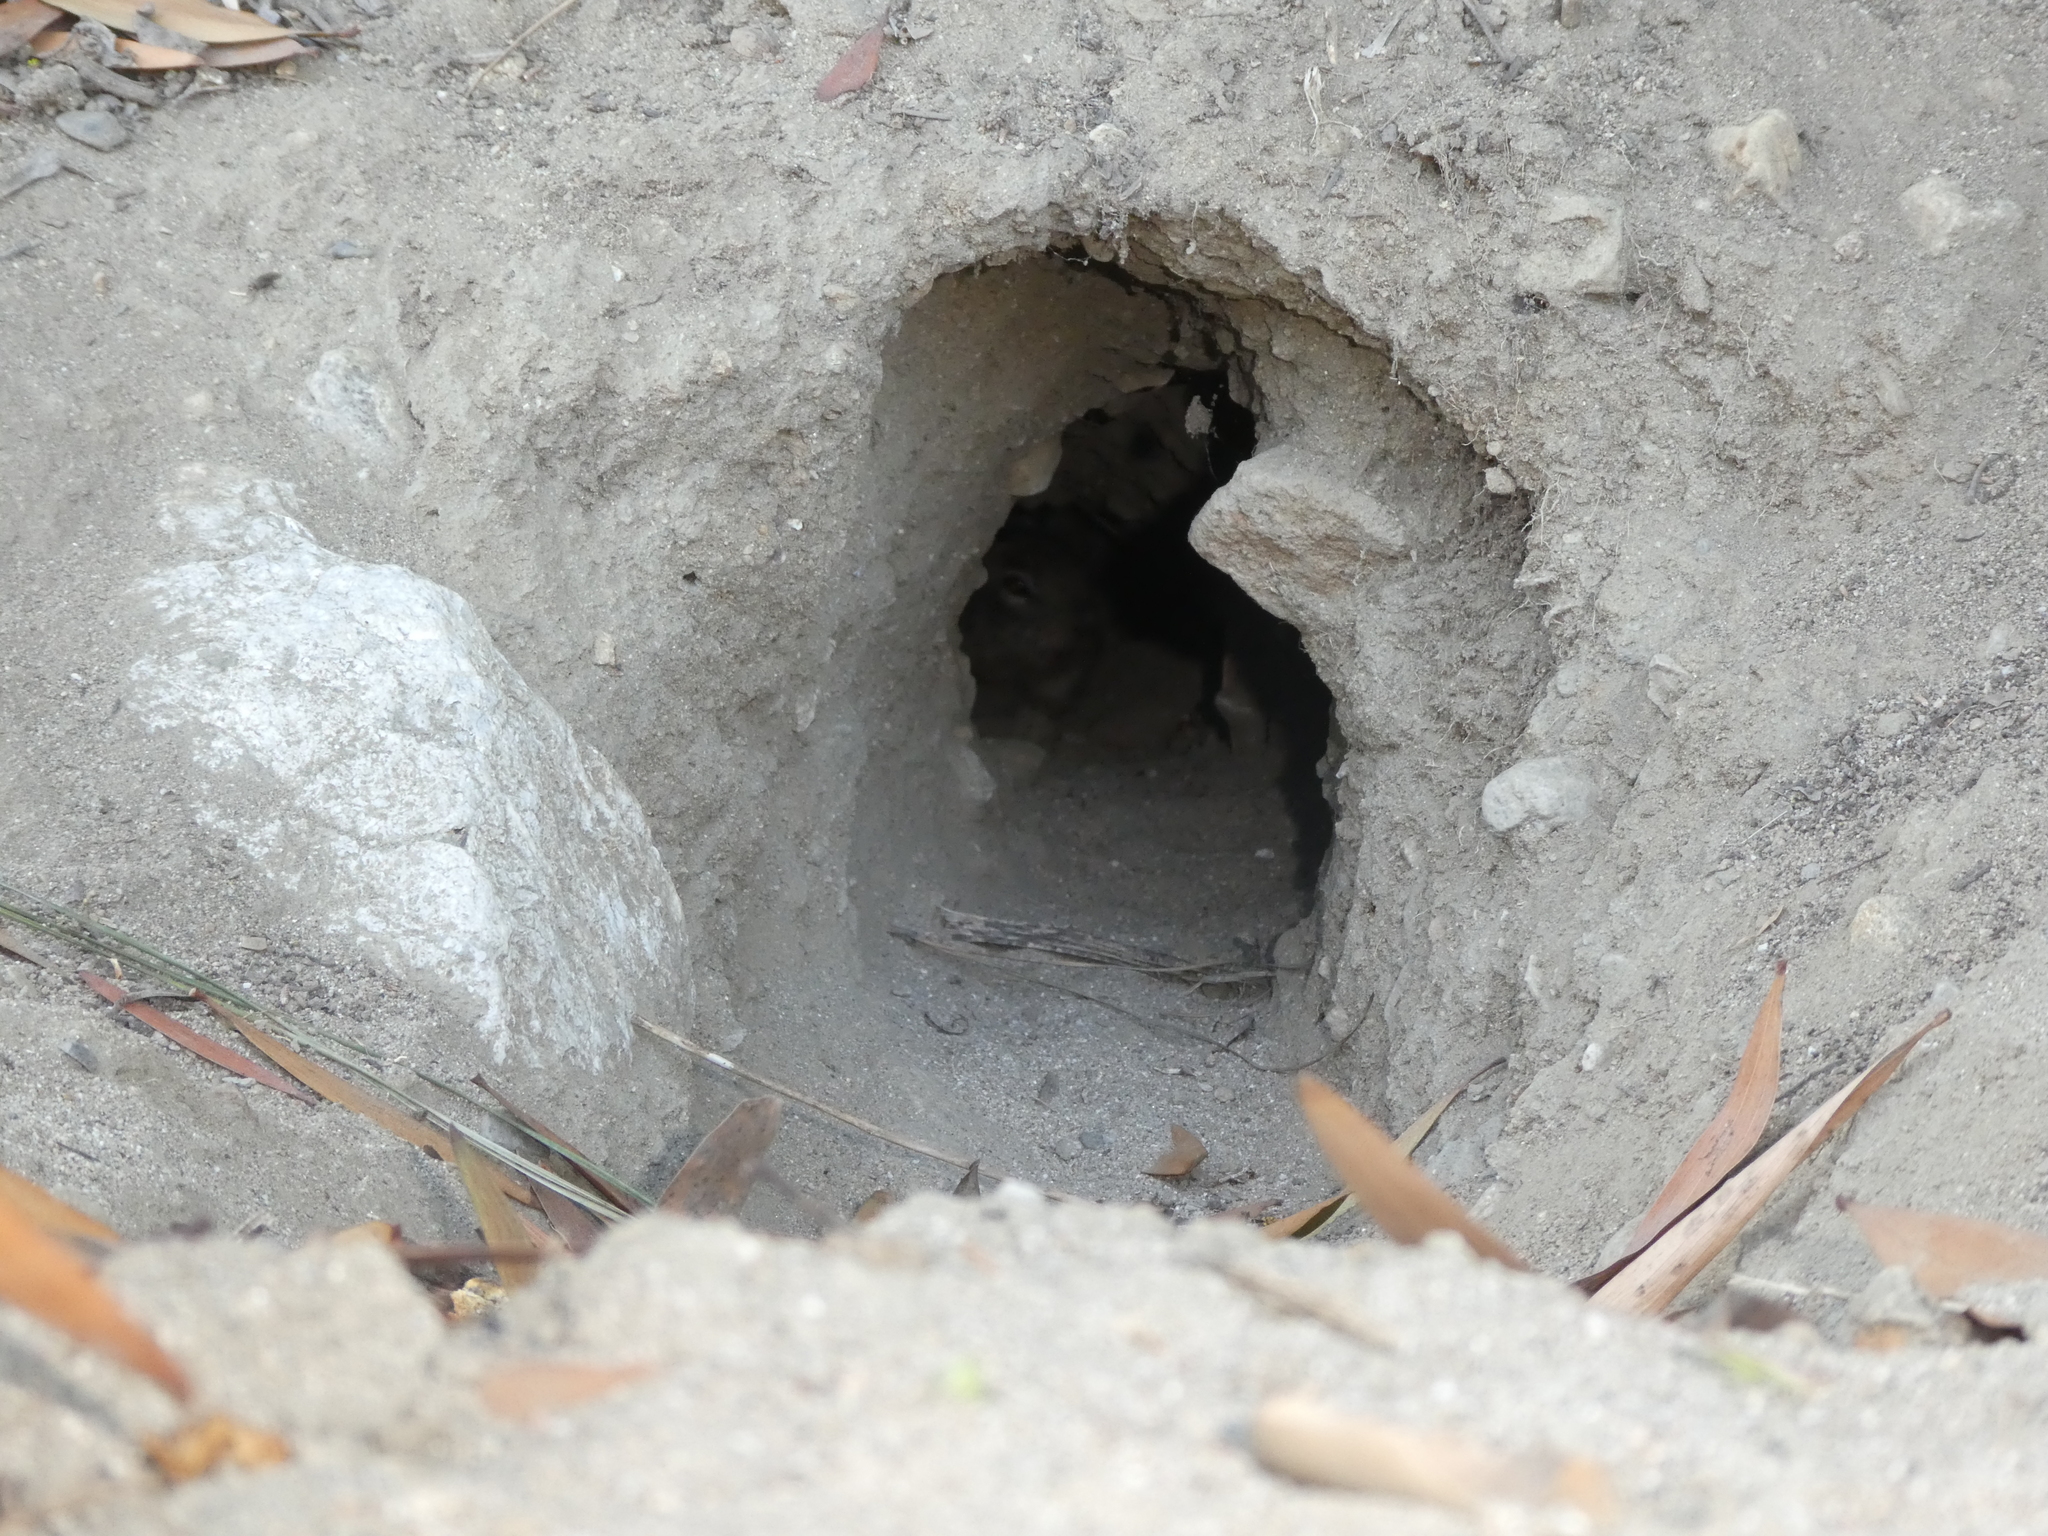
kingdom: Animalia
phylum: Chordata
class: Mammalia
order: Rodentia
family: Sciuridae
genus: Otospermophilus
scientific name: Otospermophilus beecheyi
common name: California ground squirrel
